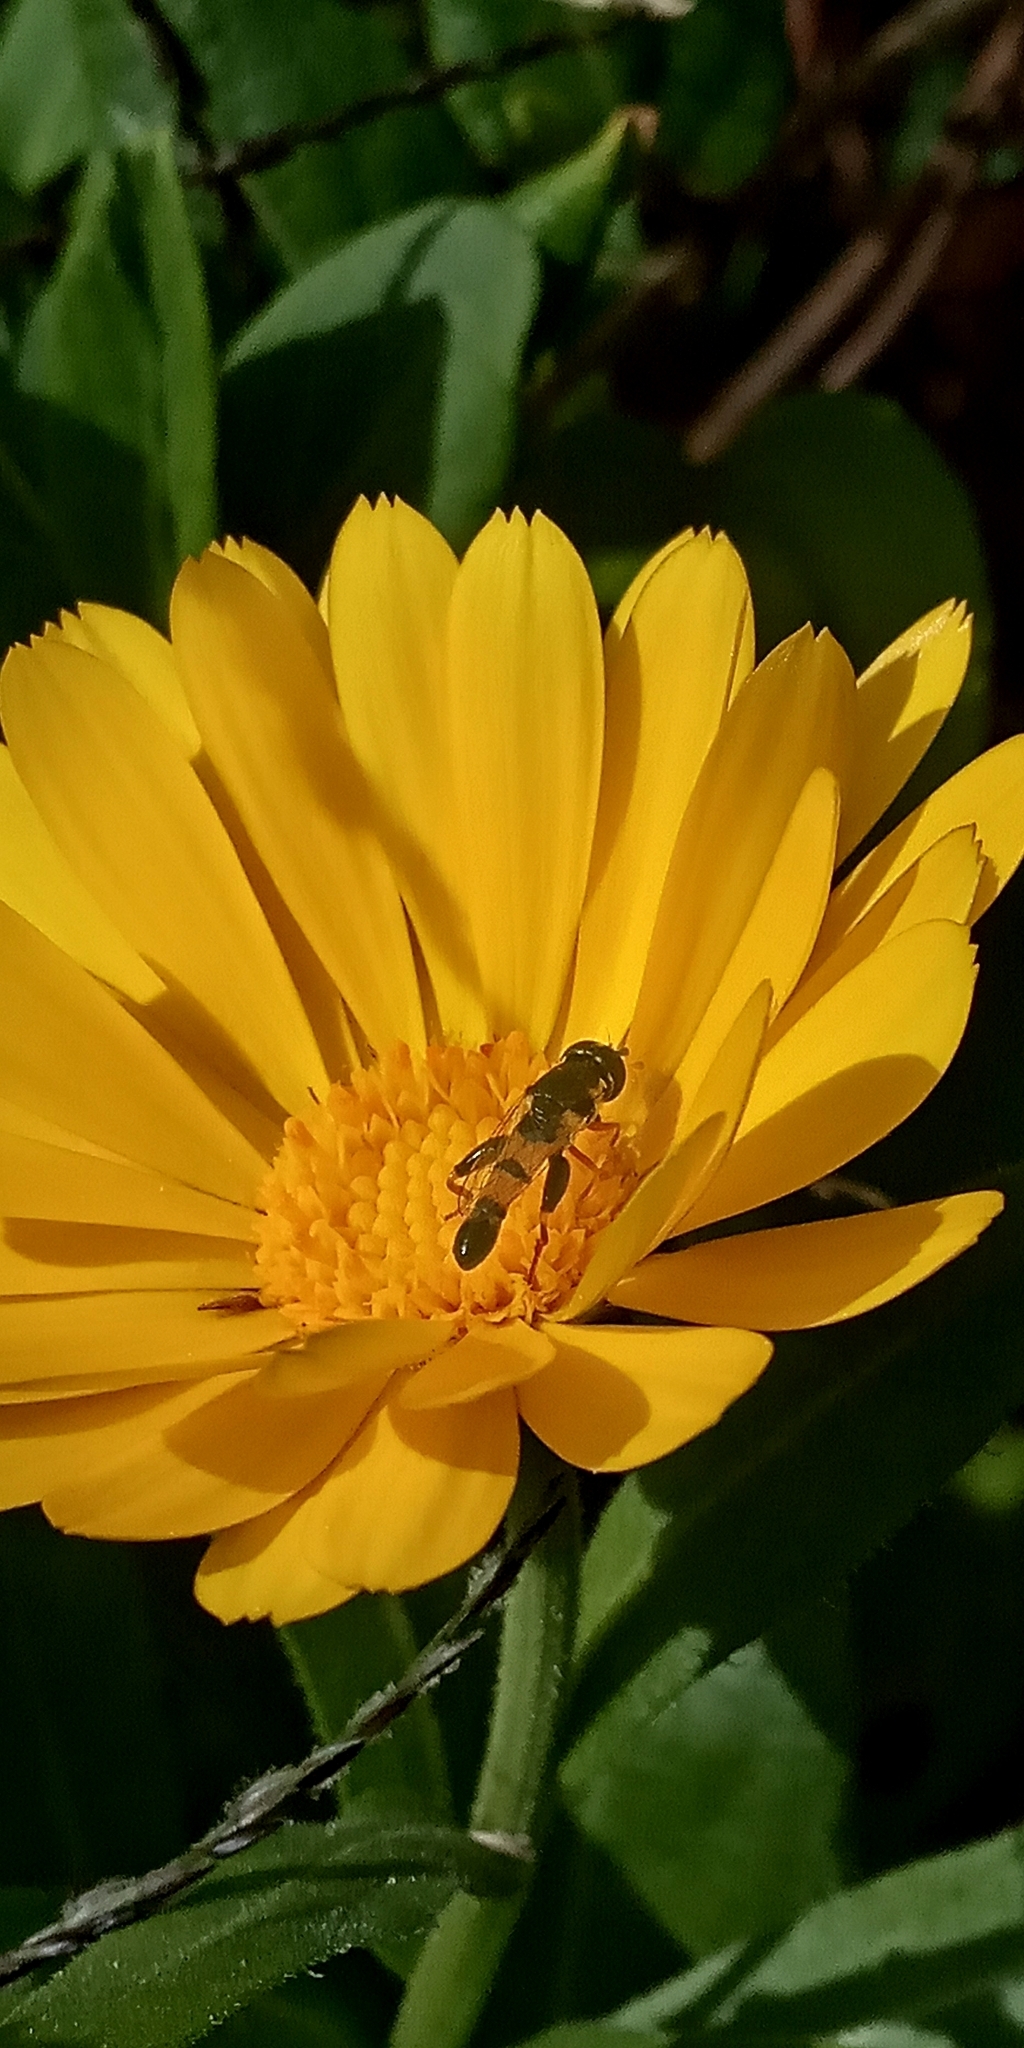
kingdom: Animalia
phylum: Arthropoda
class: Insecta
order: Diptera
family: Syrphidae
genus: Syritta
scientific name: Syritta flaviventris
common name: Syrphid fly
